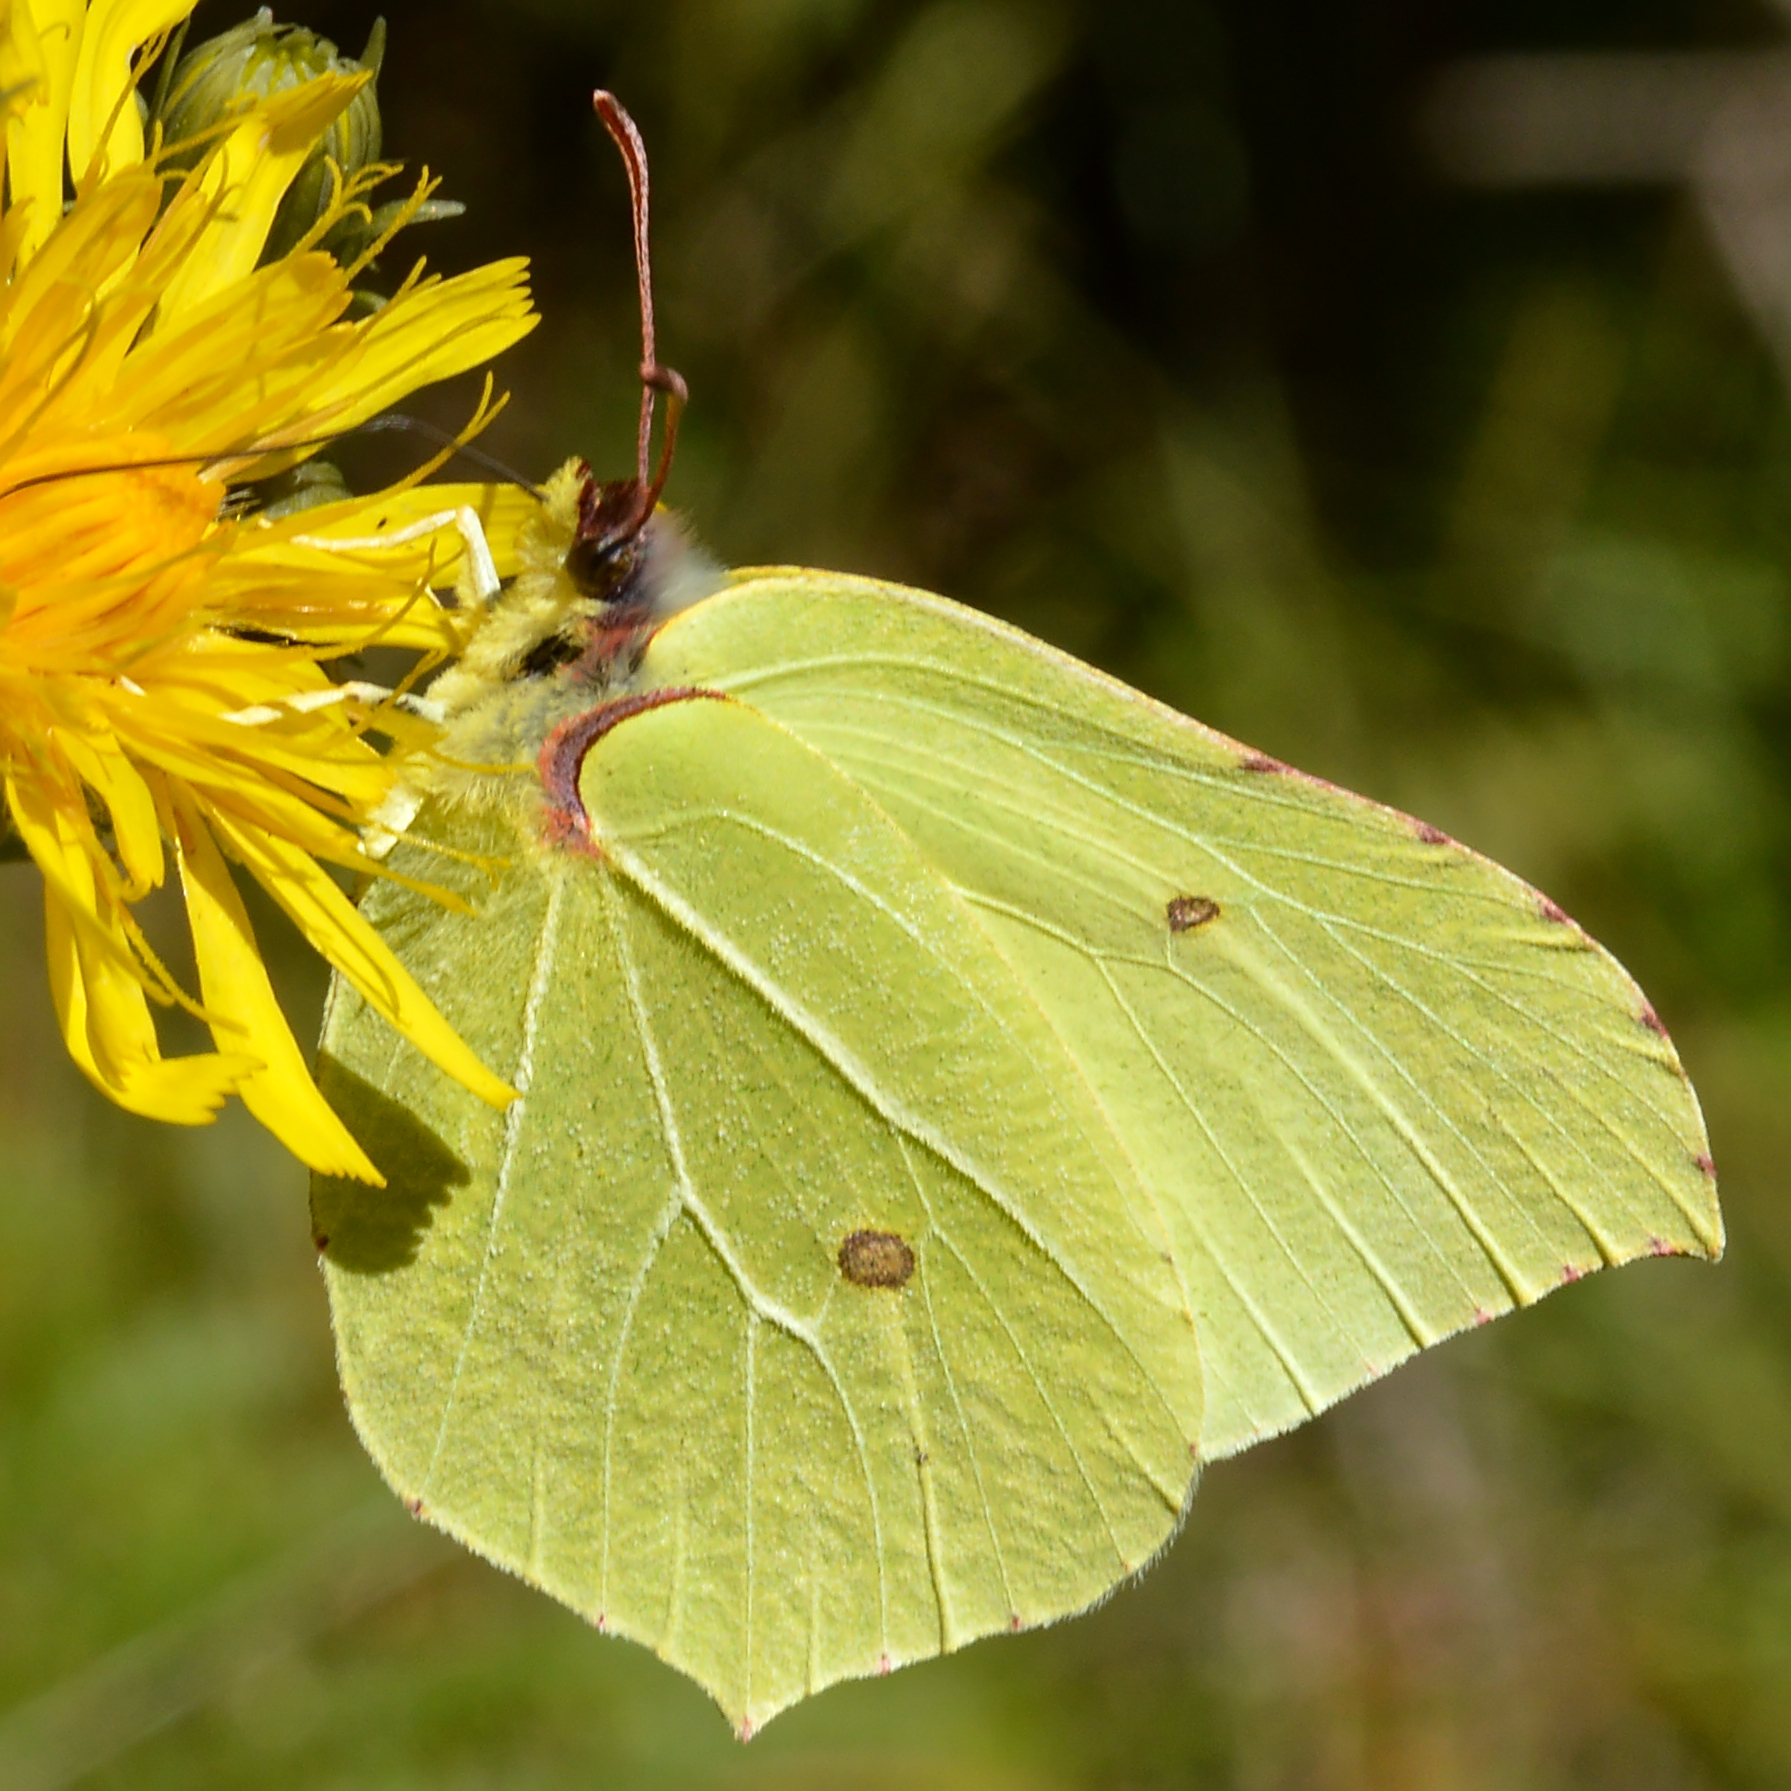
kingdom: Animalia
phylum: Arthropoda
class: Insecta
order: Lepidoptera
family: Pieridae
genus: Gonepteryx
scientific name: Gonepteryx rhamni
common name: Brimstone
